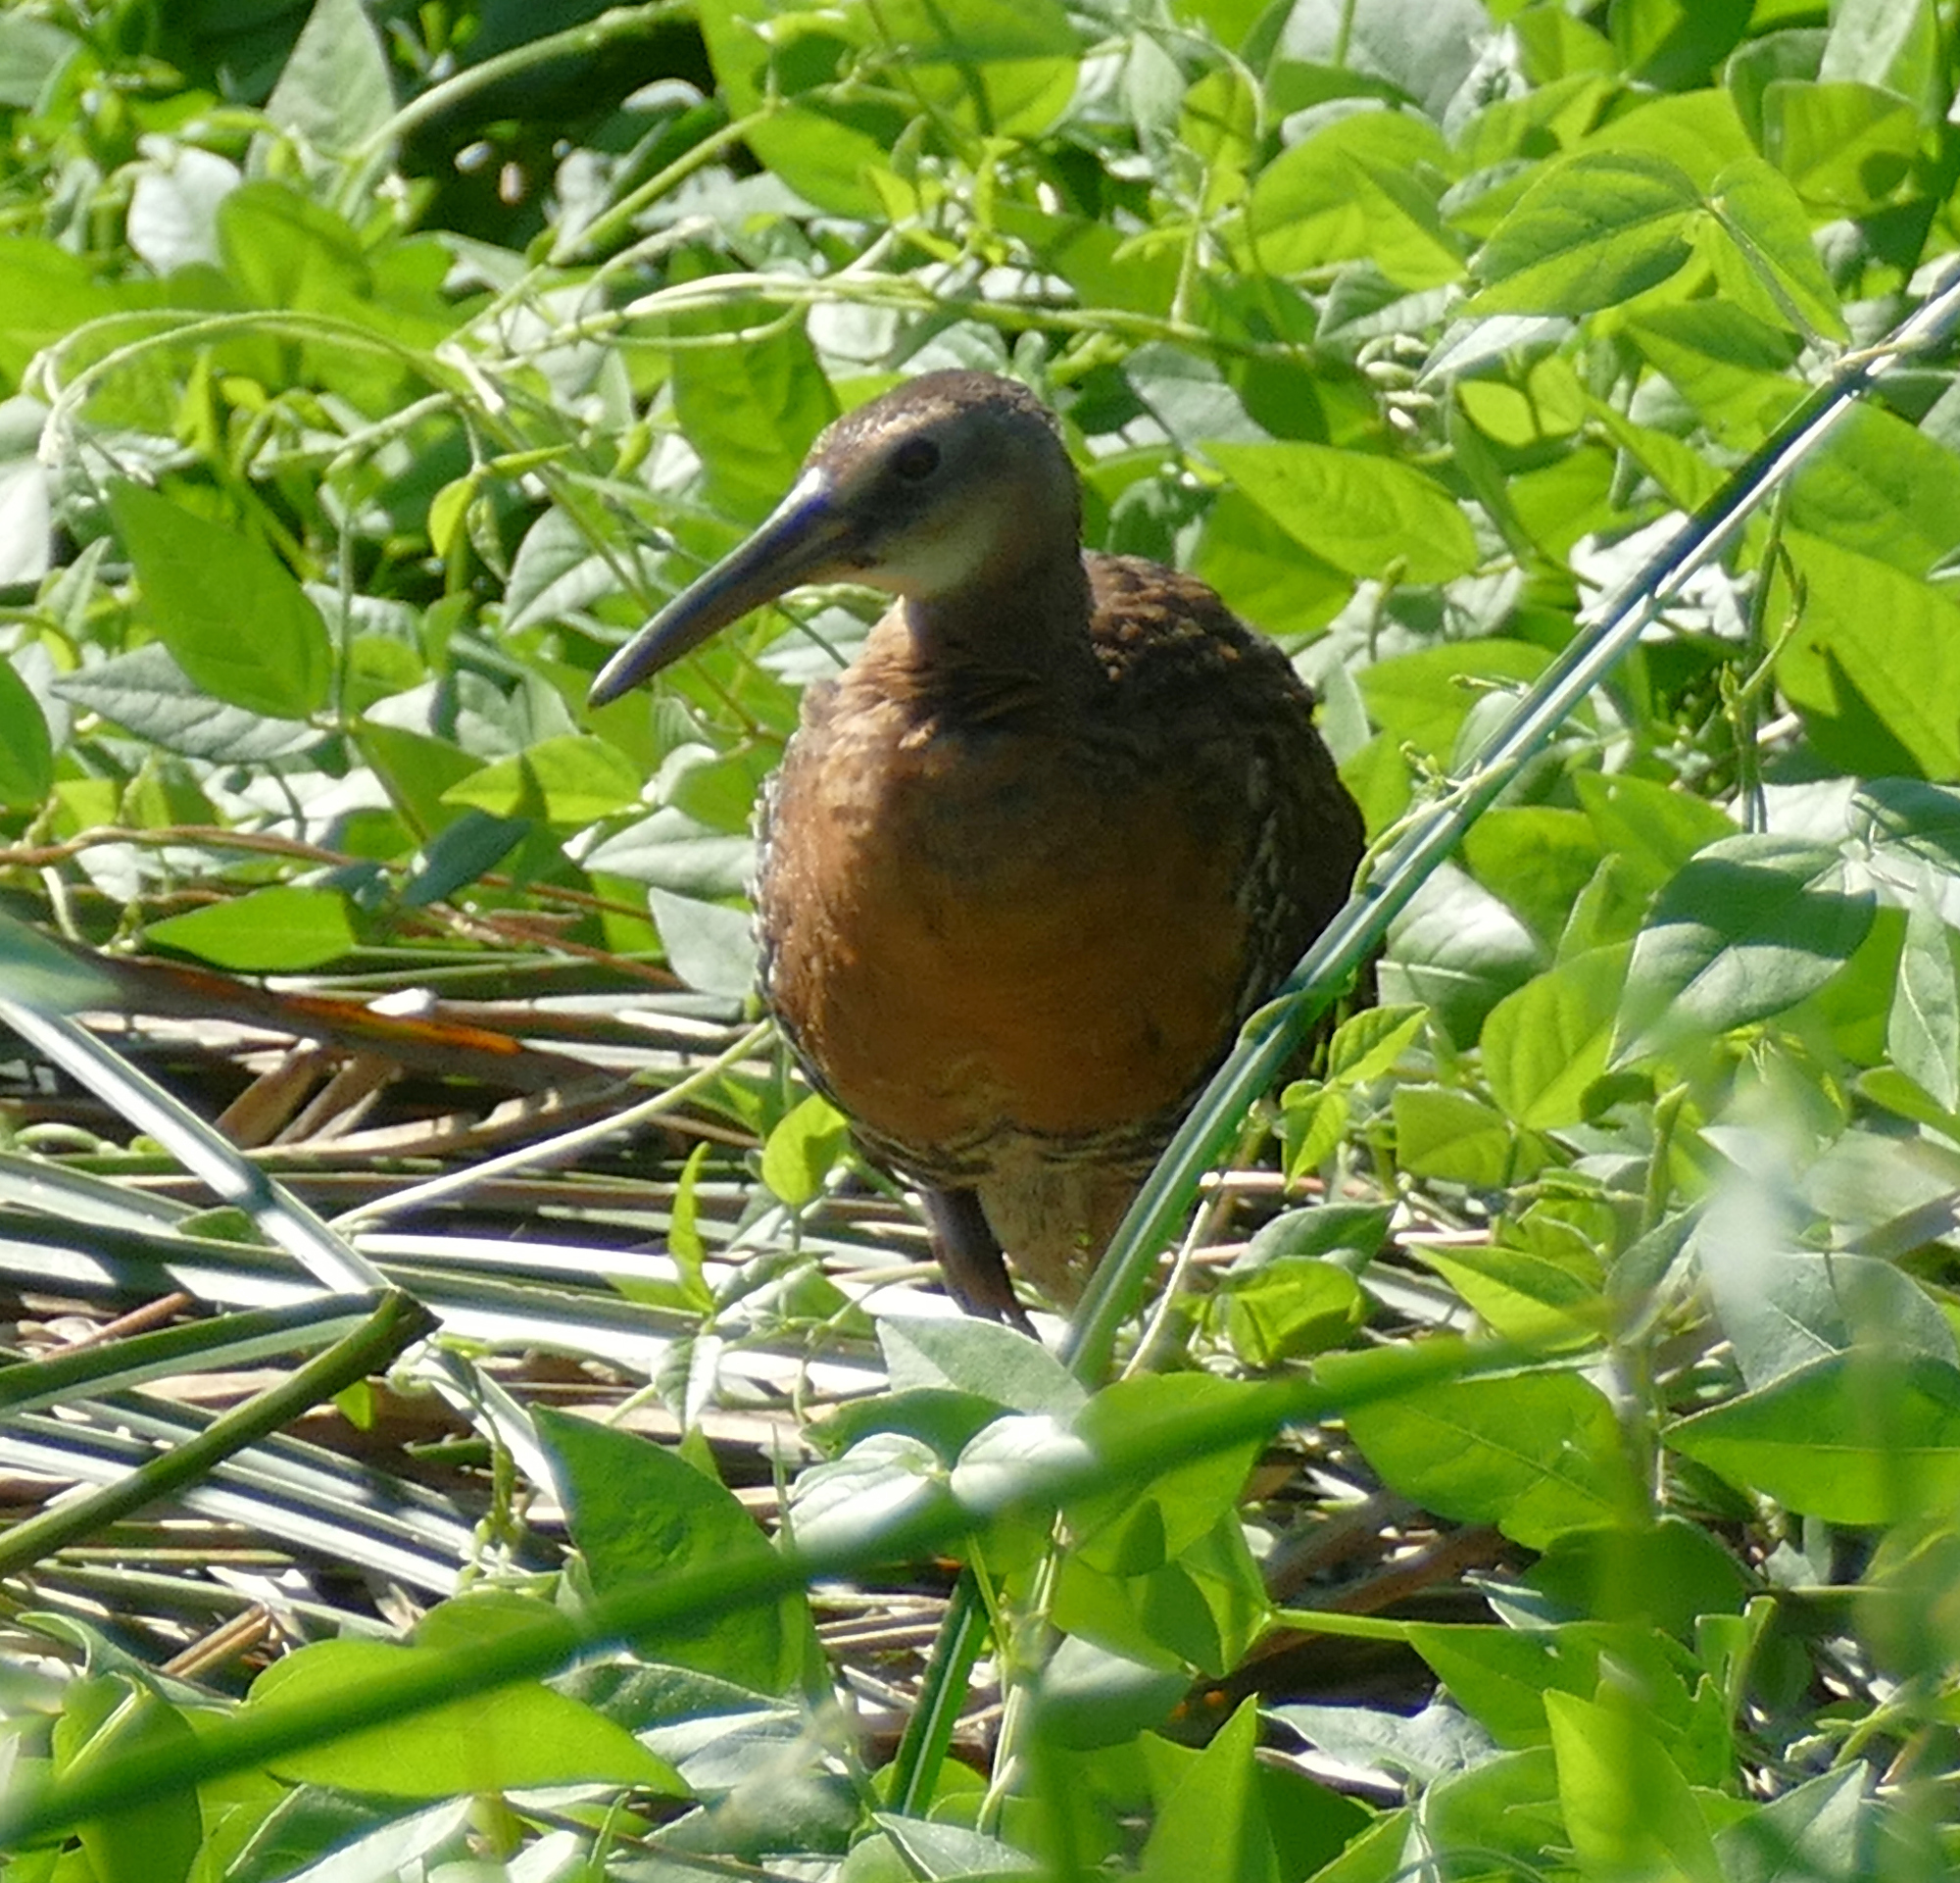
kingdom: Animalia
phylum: Chordata
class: Aves
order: Gruiformes
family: Rallidae
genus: Rallus
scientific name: Rallus elegans
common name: King rail
